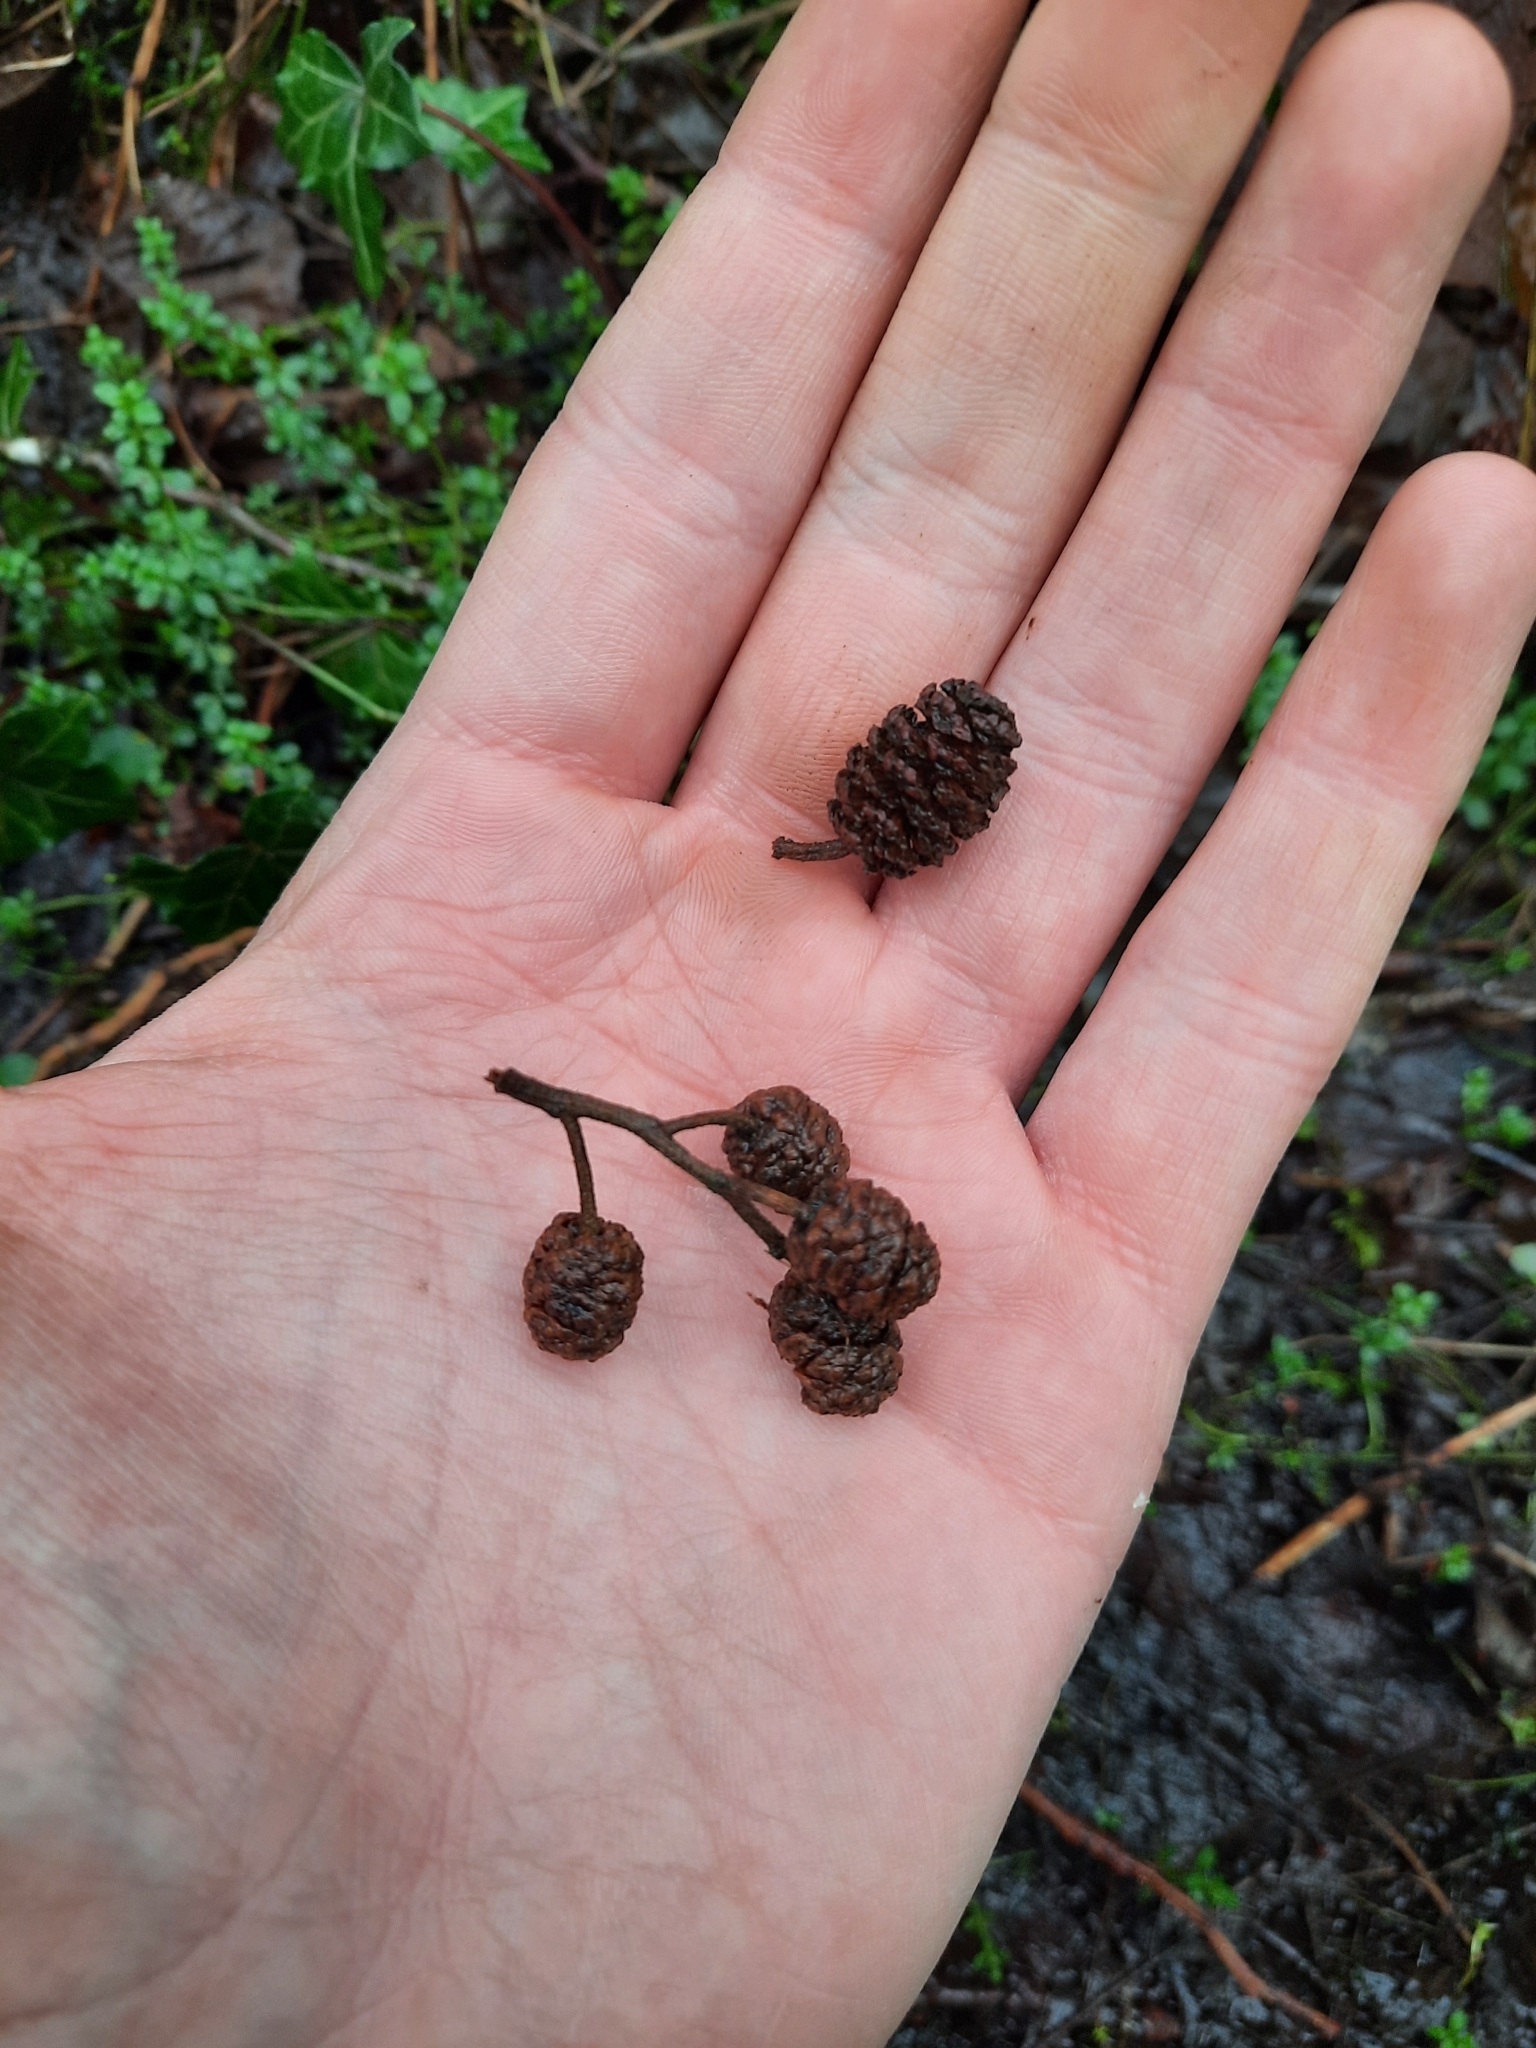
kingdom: Plantae
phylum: Tracheophyta
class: Magnoliopsida
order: Fagales
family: Betulaceae
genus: Alnus
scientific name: Alnus glutinosa
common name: Black alder
